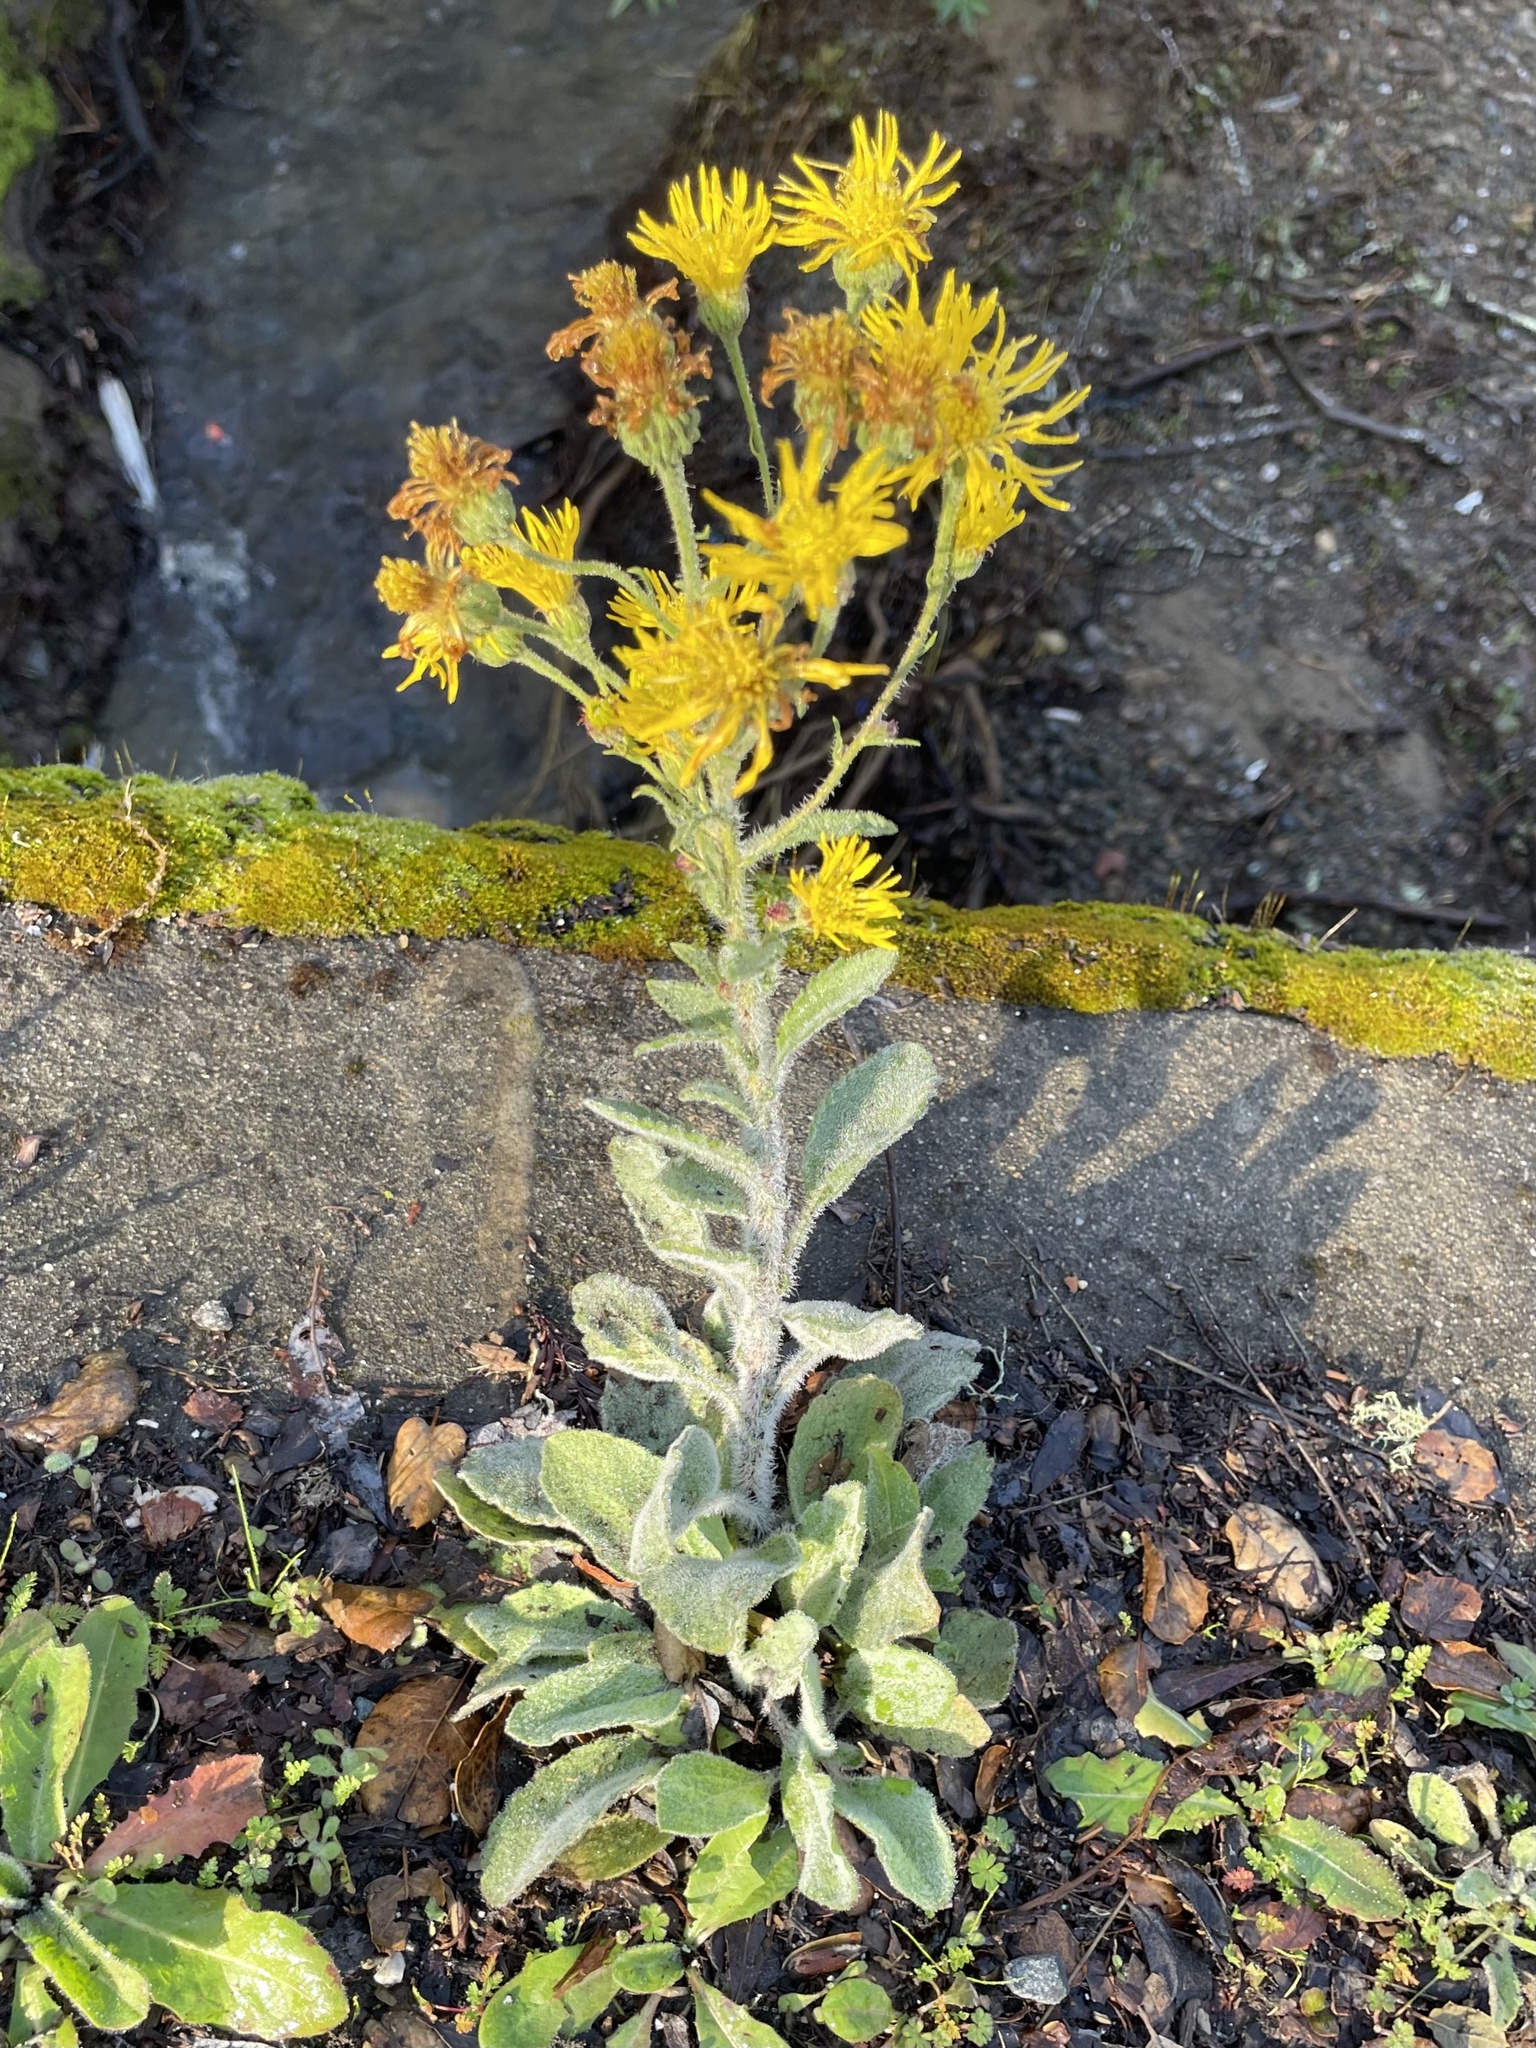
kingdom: Plantae
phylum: Tracheophyta
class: Magnoliopsida
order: Asterales
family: Asteraceae
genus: Heterotheca
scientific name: Heterotheca grandiflora
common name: Telegraphweed
